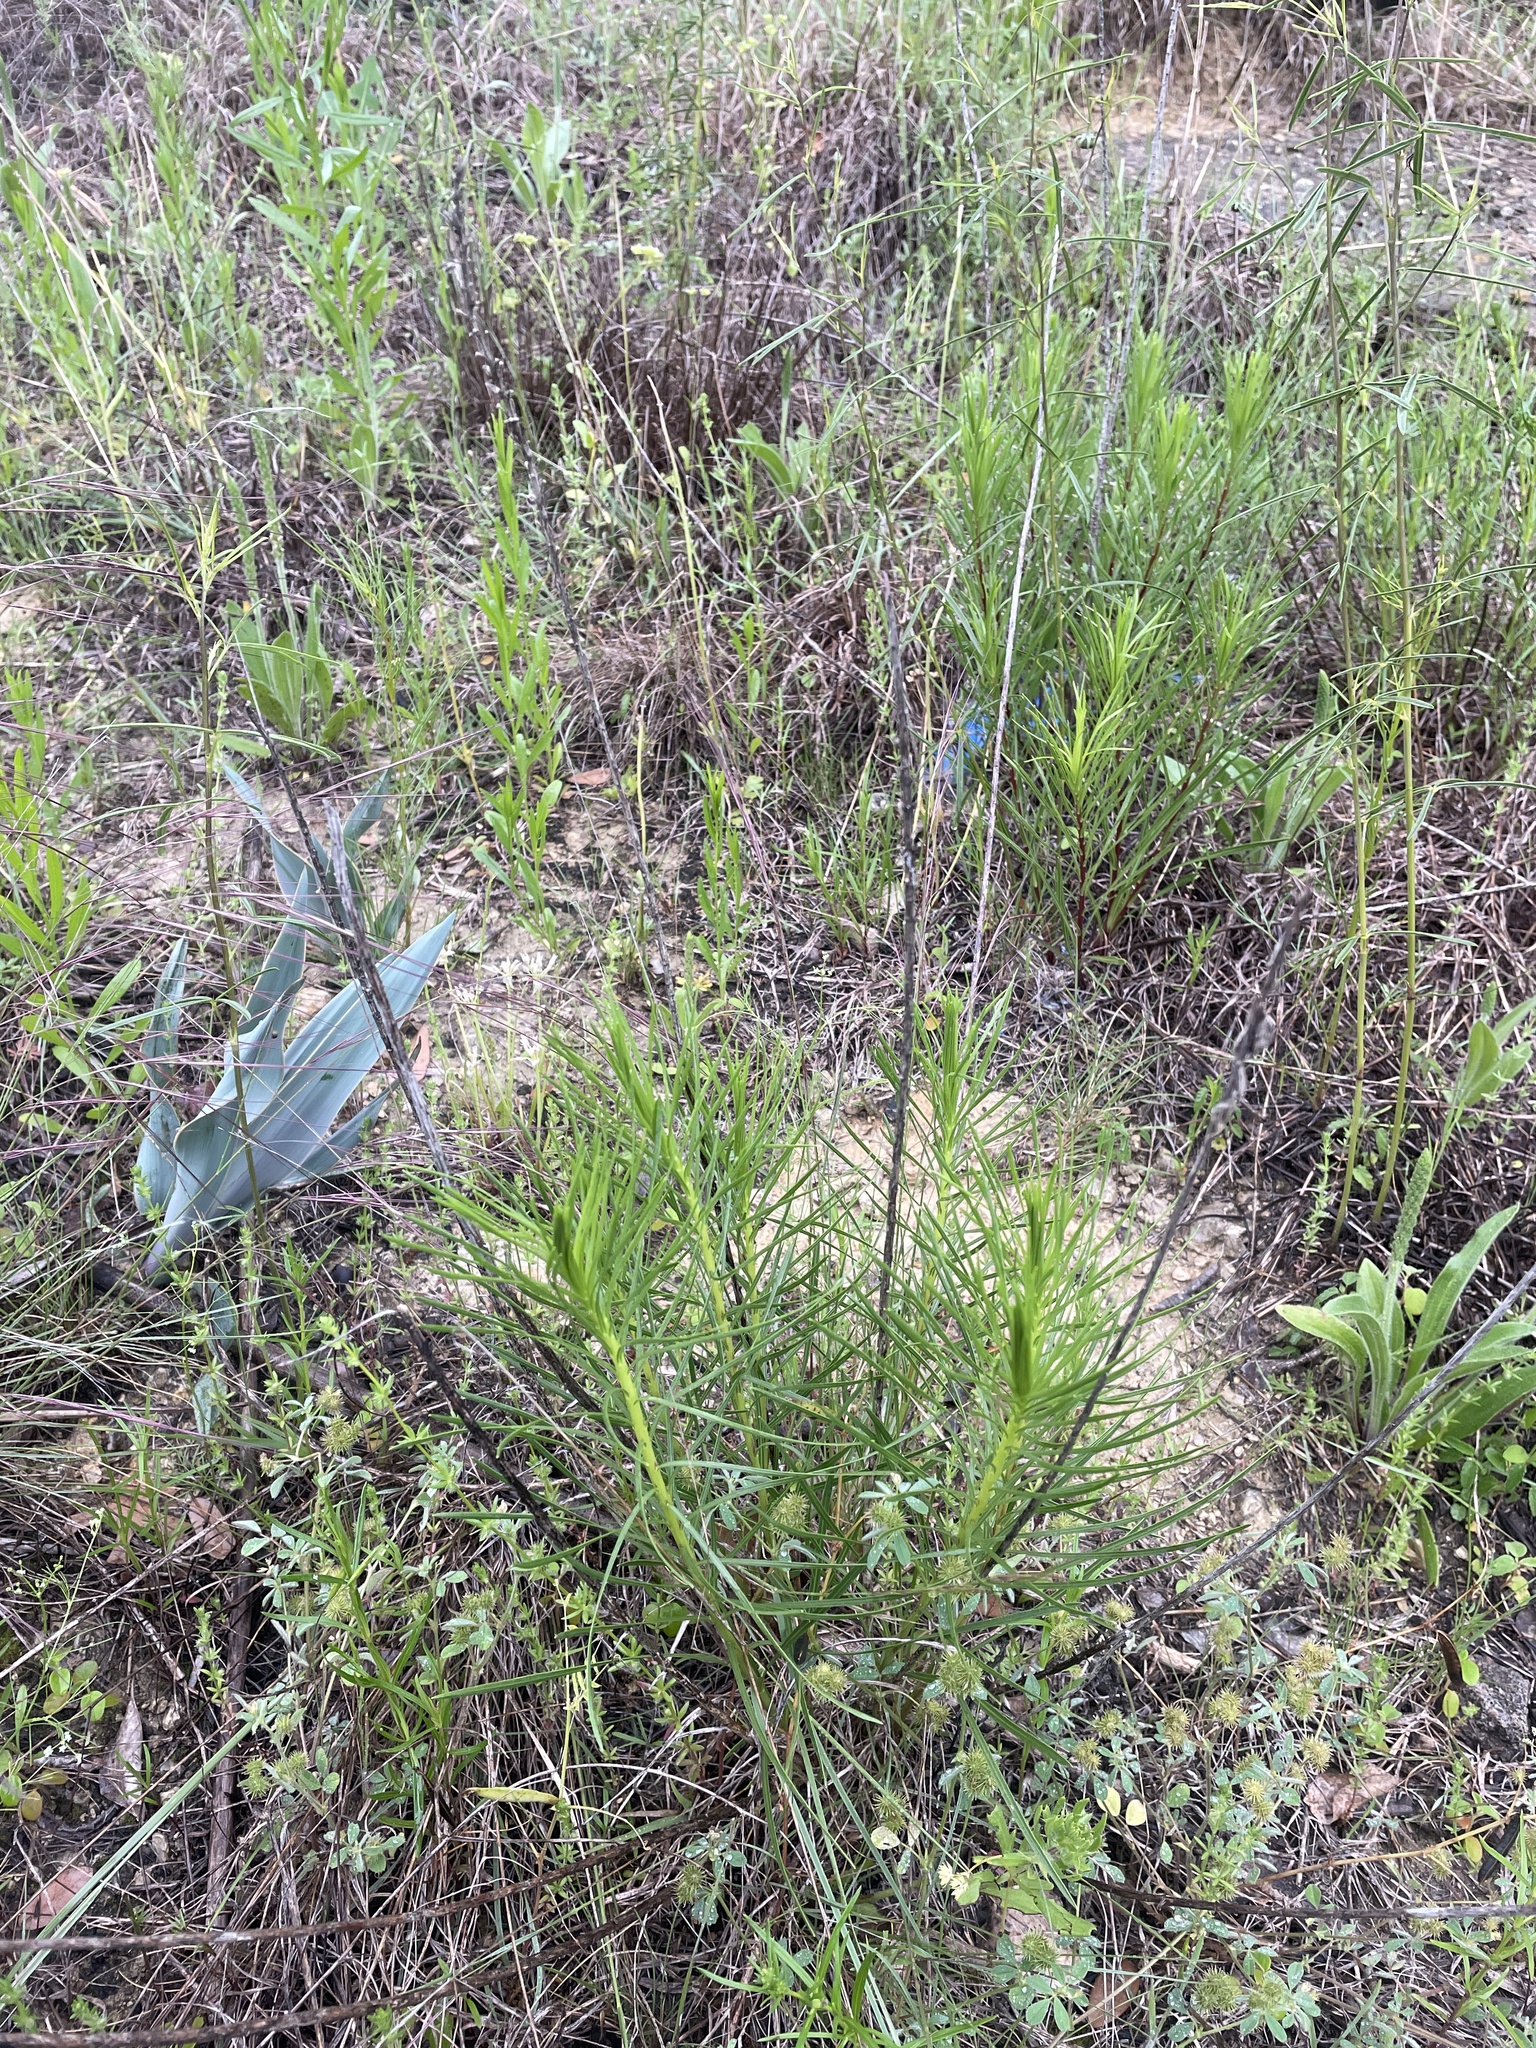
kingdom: Plantae
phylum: Tracheophyta
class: Magnoliopsida
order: Asterales
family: Asteraceae
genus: Liatris
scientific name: Liatris punctata
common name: Dotted gayfeather
